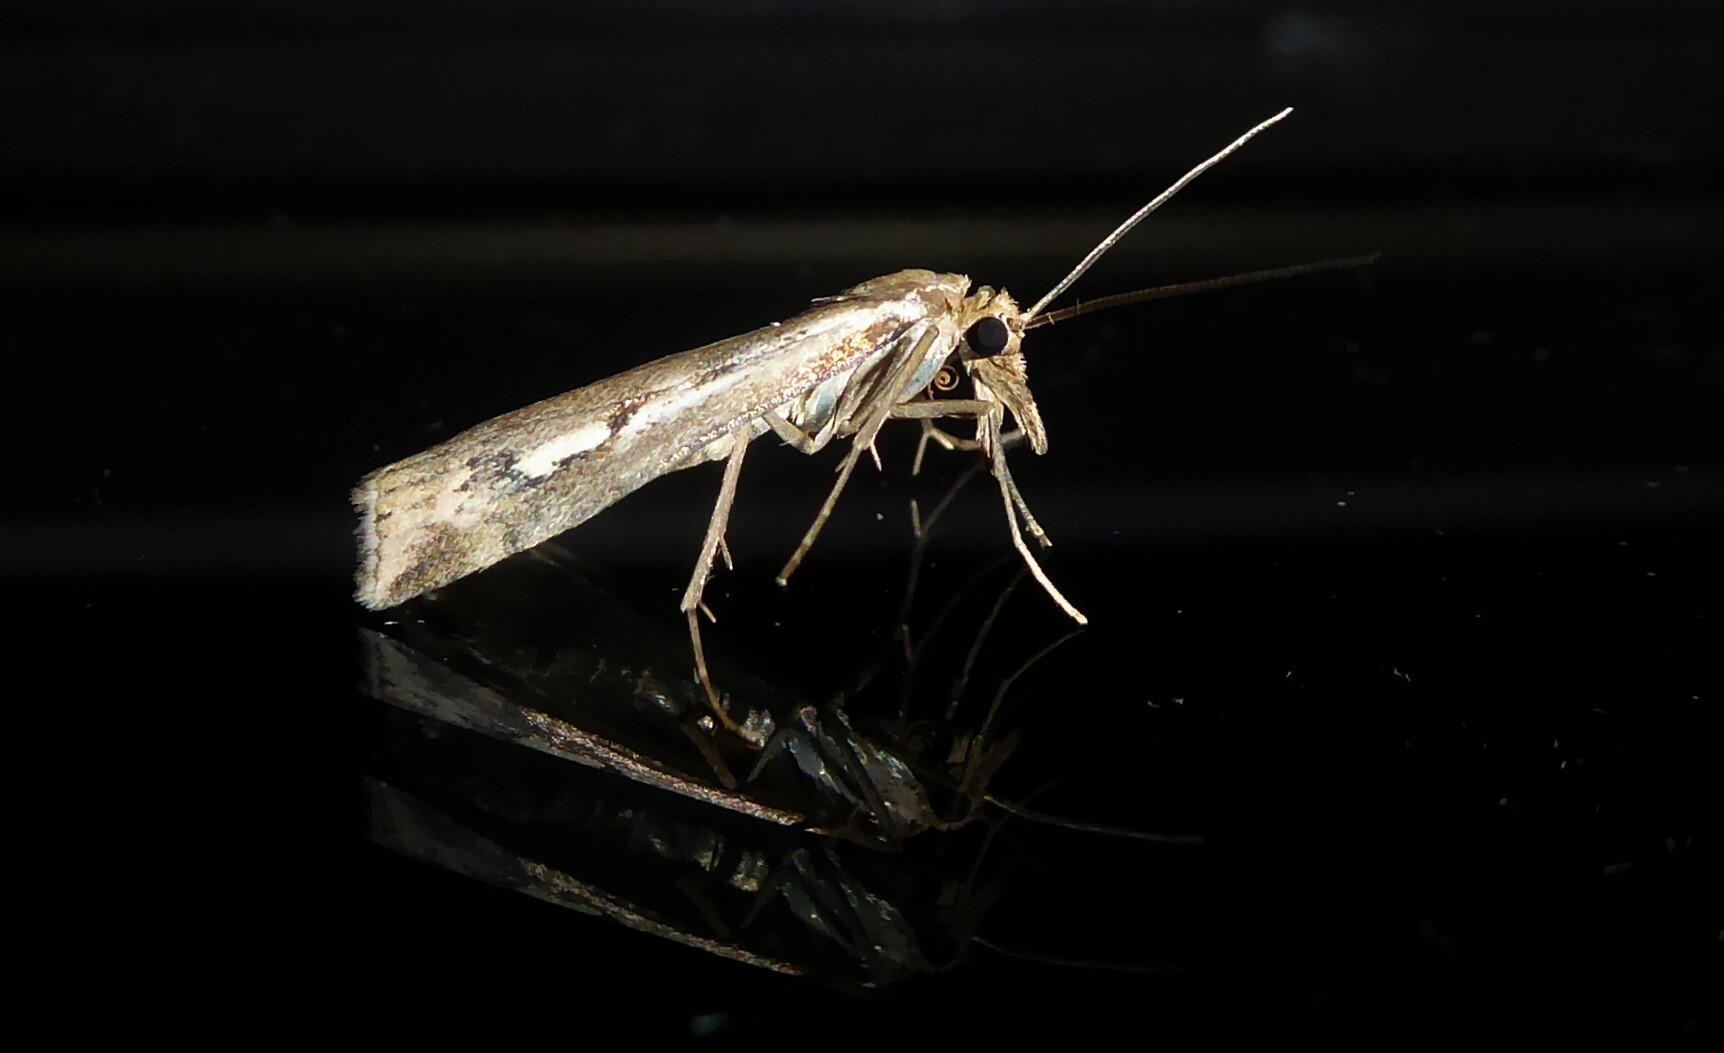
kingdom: Animalia
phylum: Arthropoda
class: Insecta
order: Lepidoptera
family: Crambidae
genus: Orocrambus
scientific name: Orocrambus vulgaris
